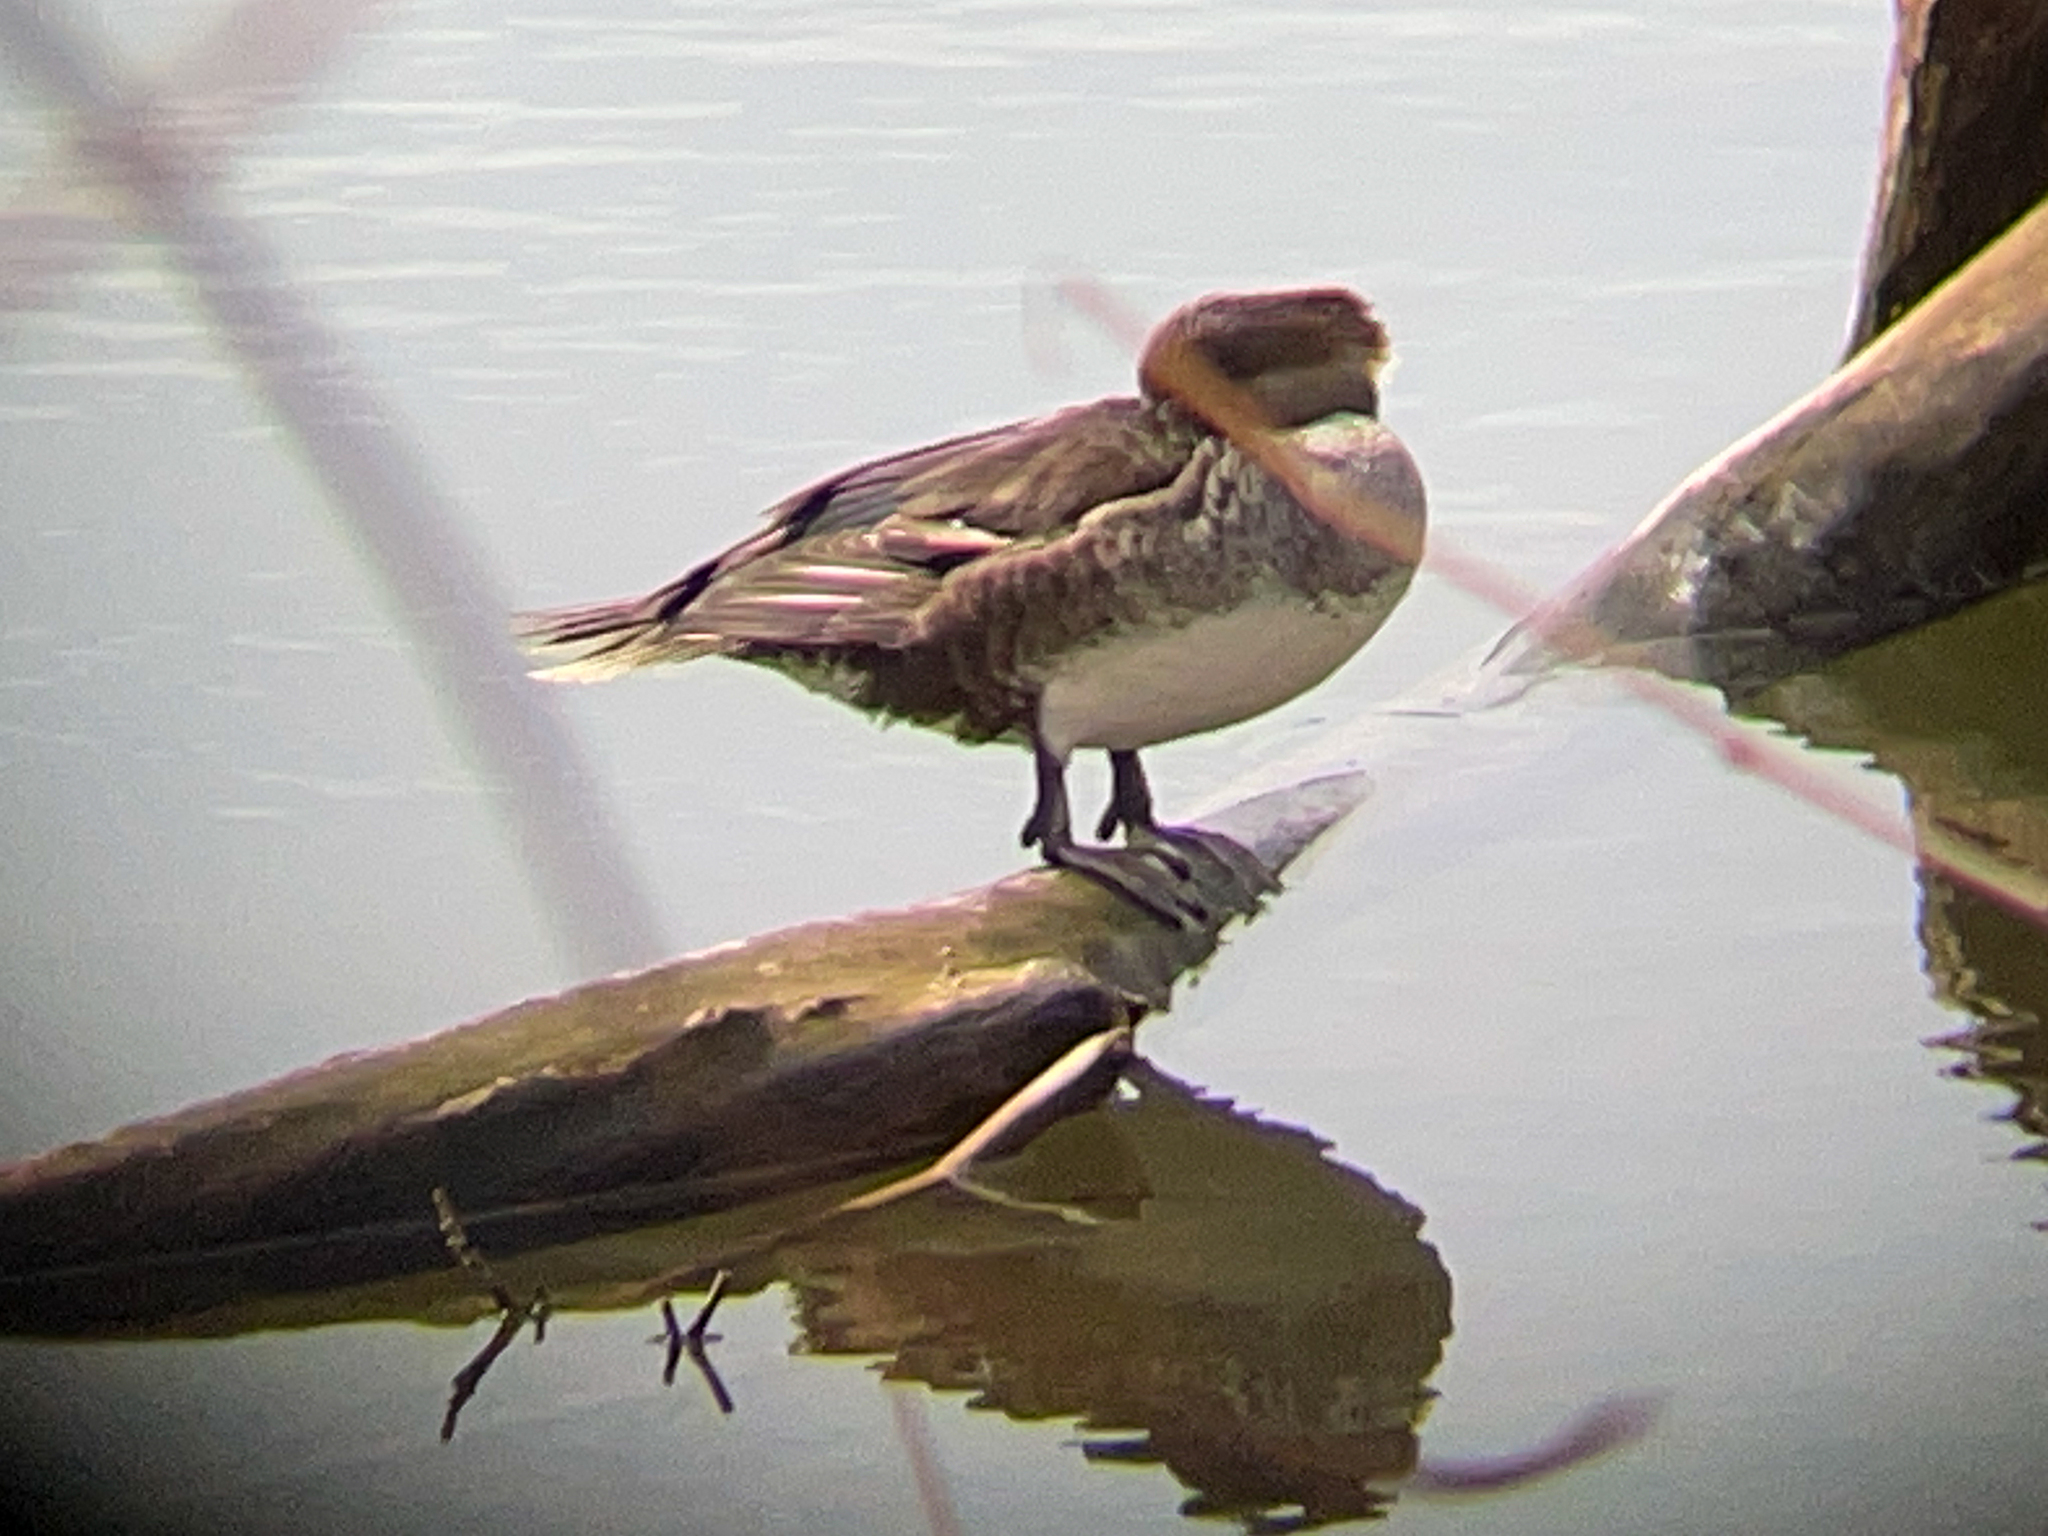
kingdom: Animalia
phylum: Chordata
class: Aves
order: Anseriformes
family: Anatidae
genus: Lophodytes
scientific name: Lophodytes cucullatus
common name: Hooded merganser
